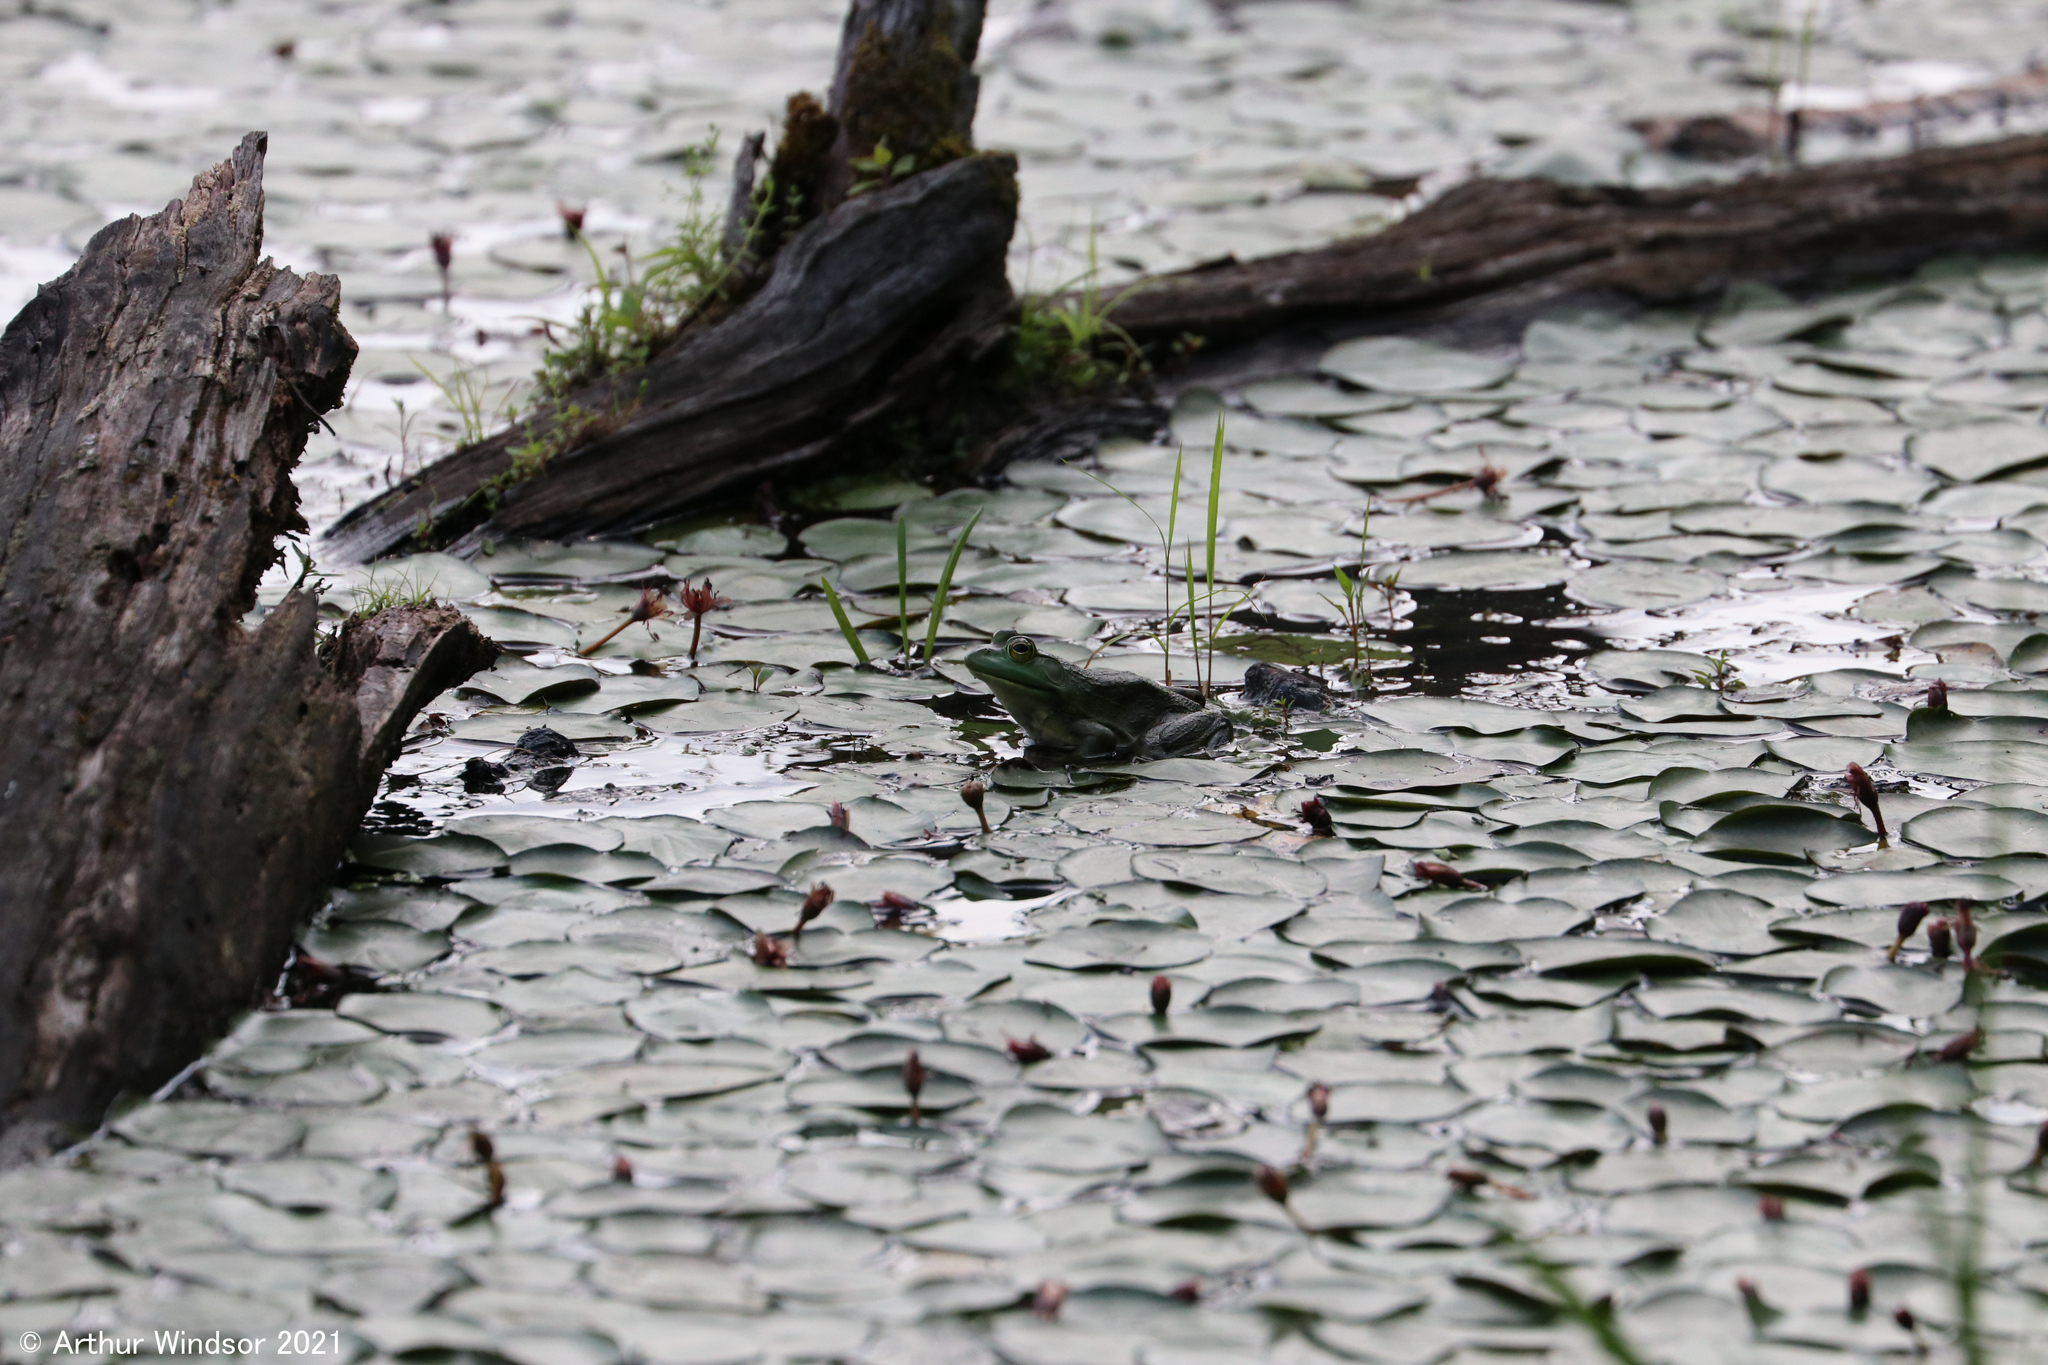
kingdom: Animalia
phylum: Chordata
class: Amphibia
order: Anura
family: Ranidae
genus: Lithobates
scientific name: Lithobates catesbeianus
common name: American bullfrog
